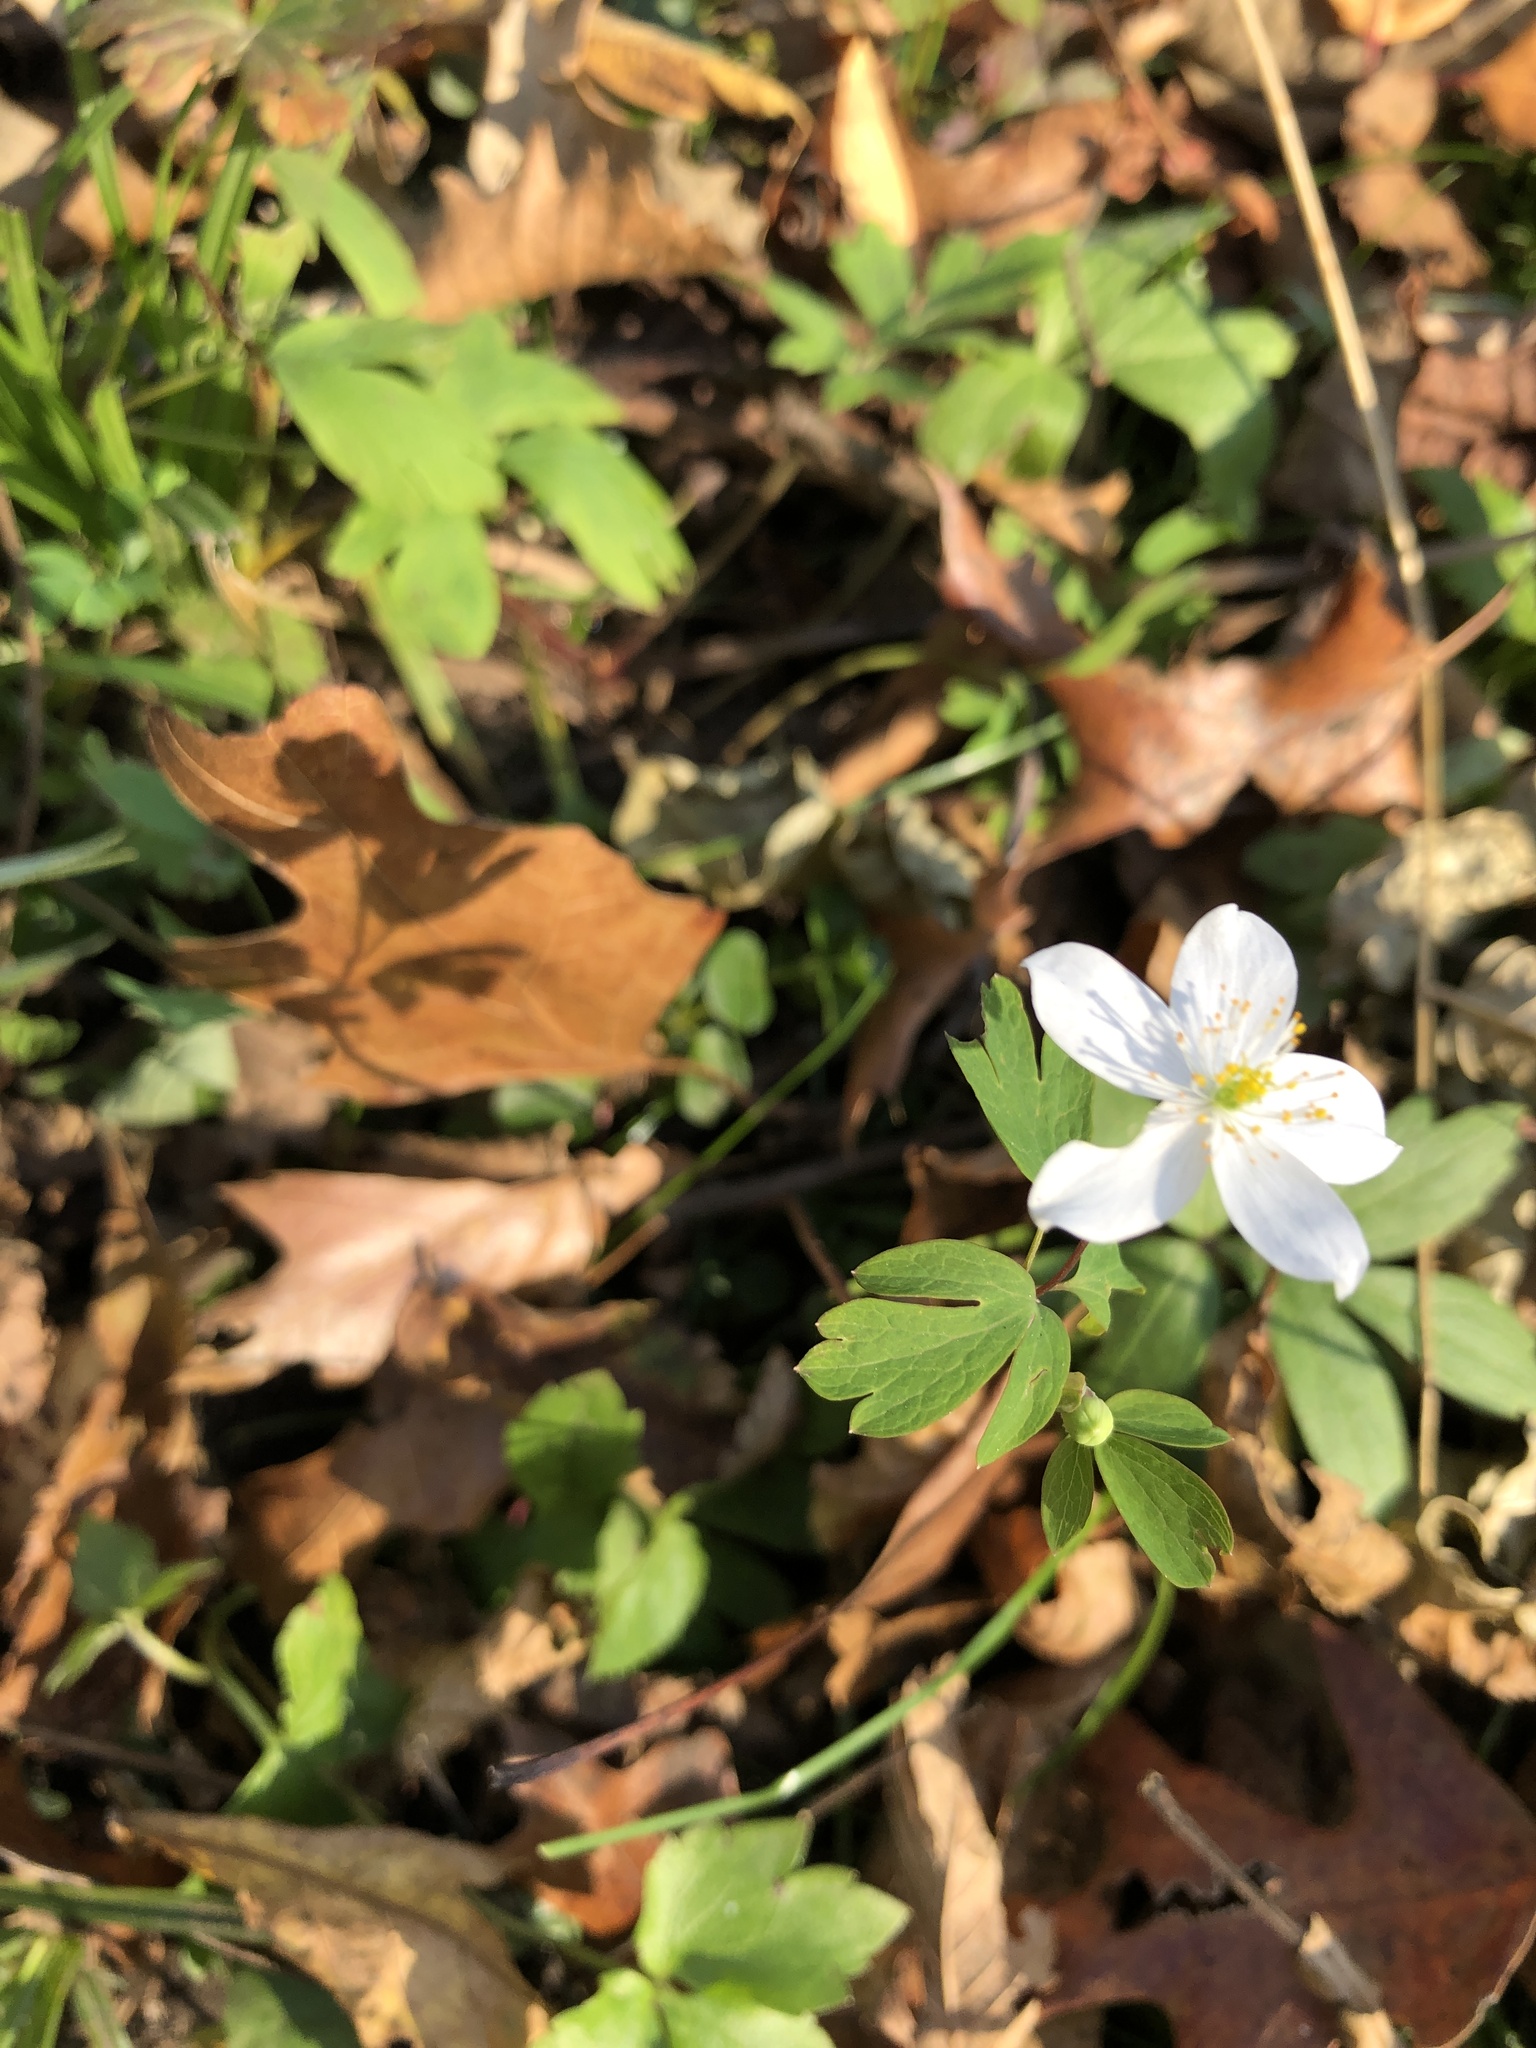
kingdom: Plantae
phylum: Tracheophyta
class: Magnoliopsida
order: Ranunculales
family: Ranunculaceae
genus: Enemion
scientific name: Enemion biternatum
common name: Eastern false rue-anemone
